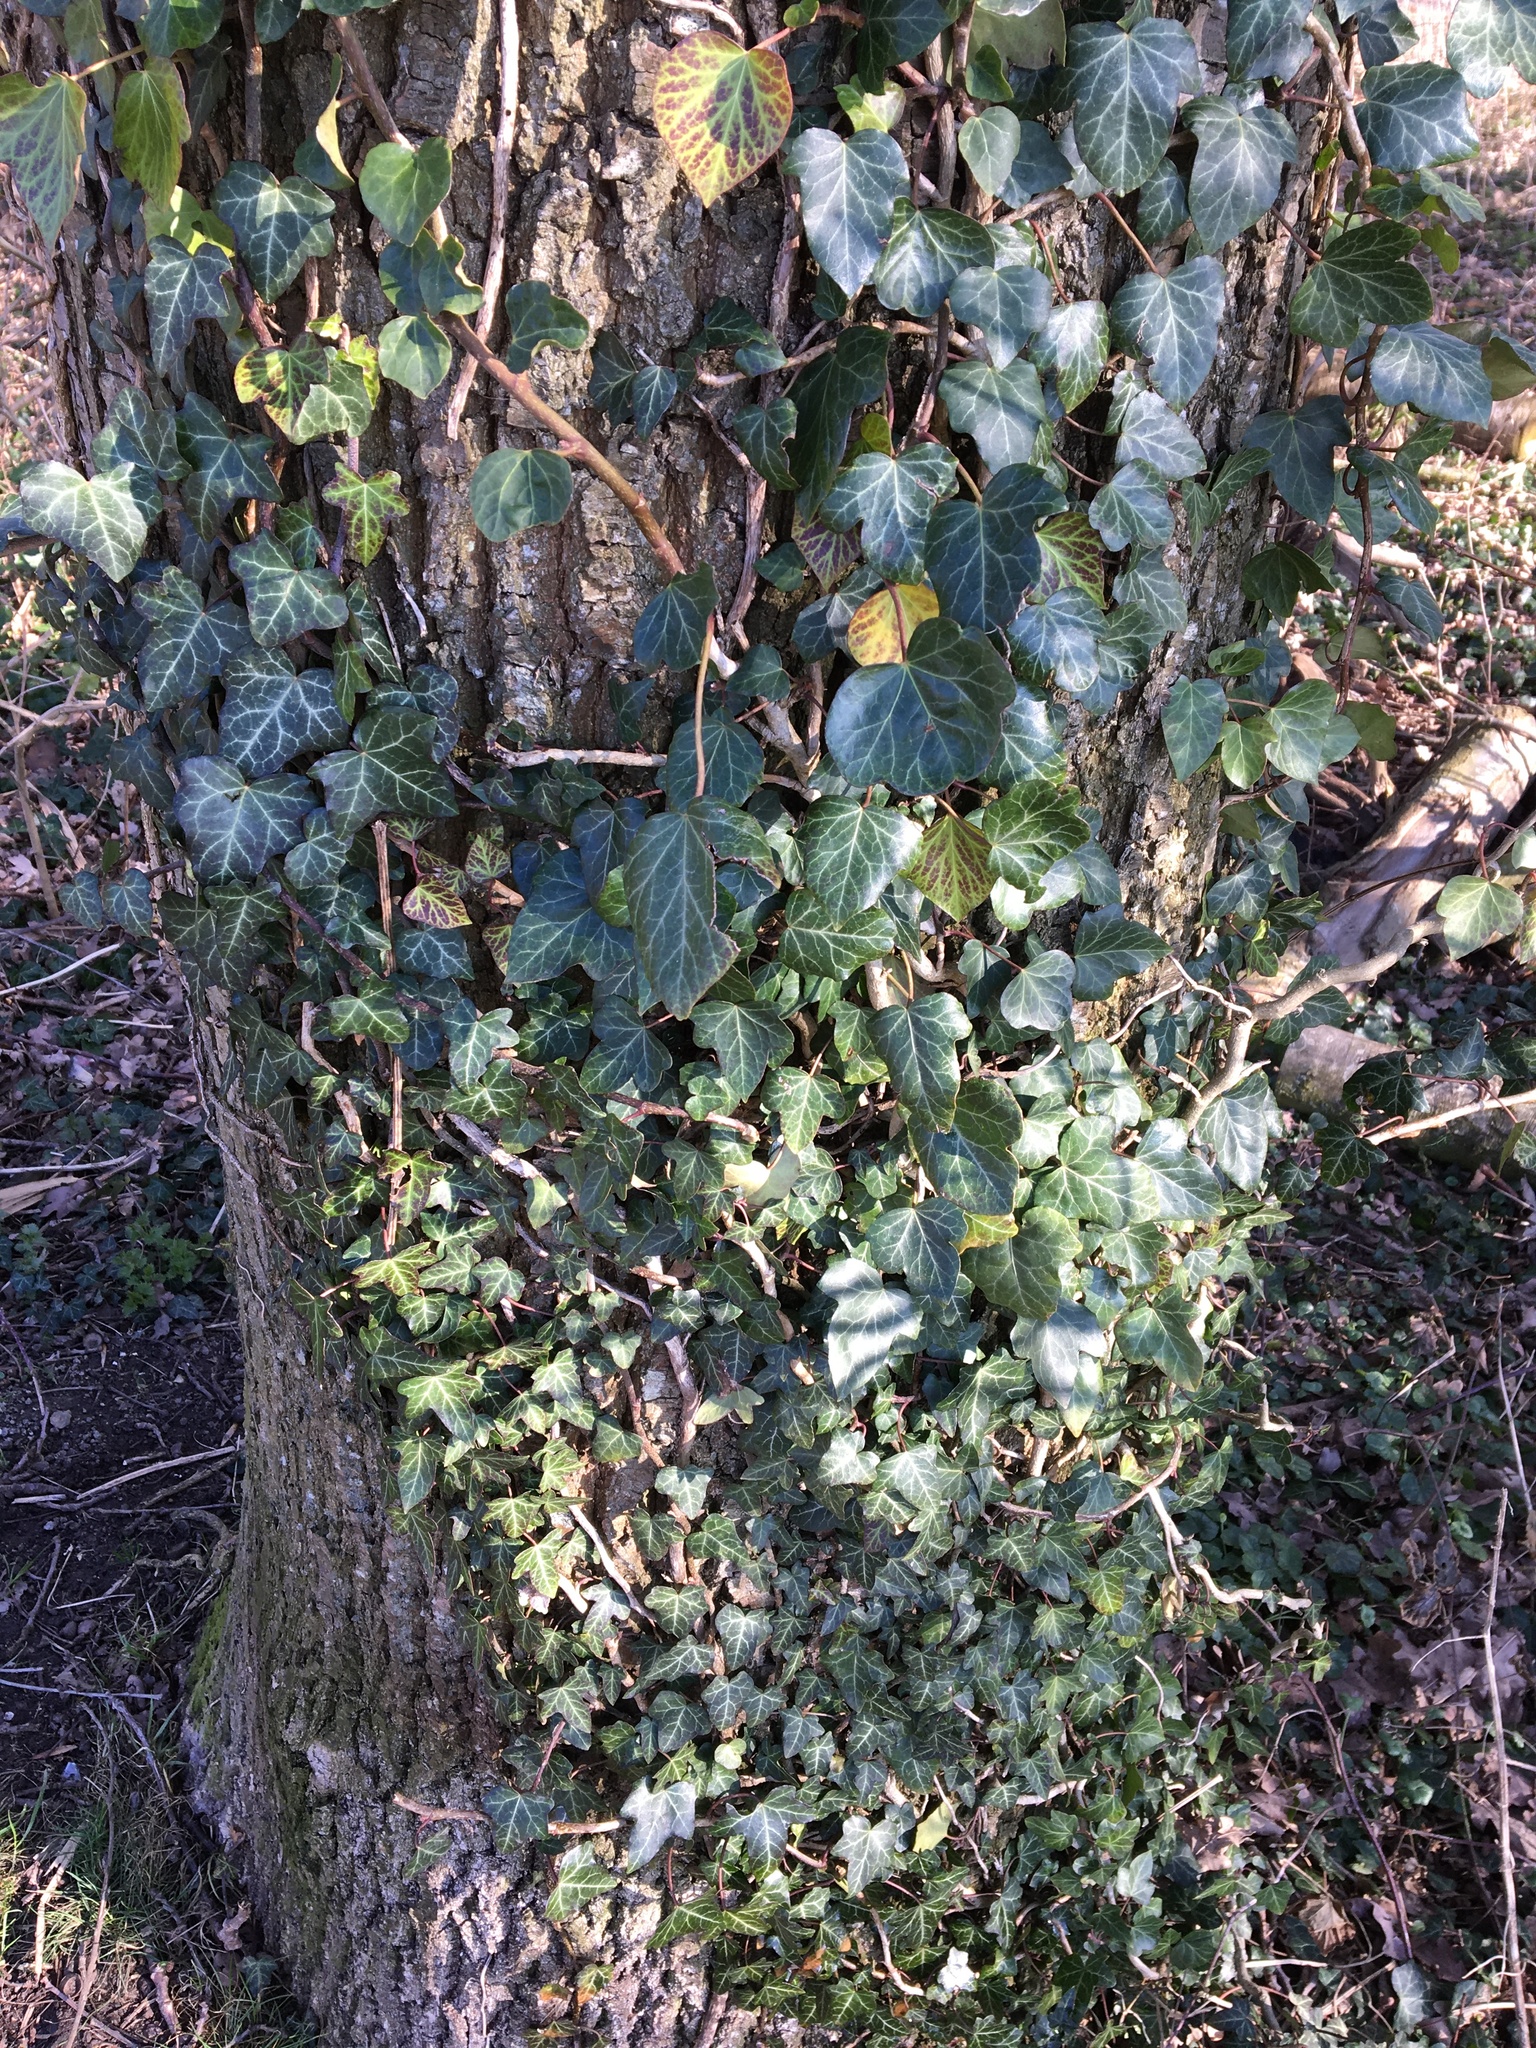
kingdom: Plantae
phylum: Tracheophyta
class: Magnoliopsida
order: Apiales
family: Araliaceae
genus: Hedera
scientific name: Hedera helix
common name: Ivy
